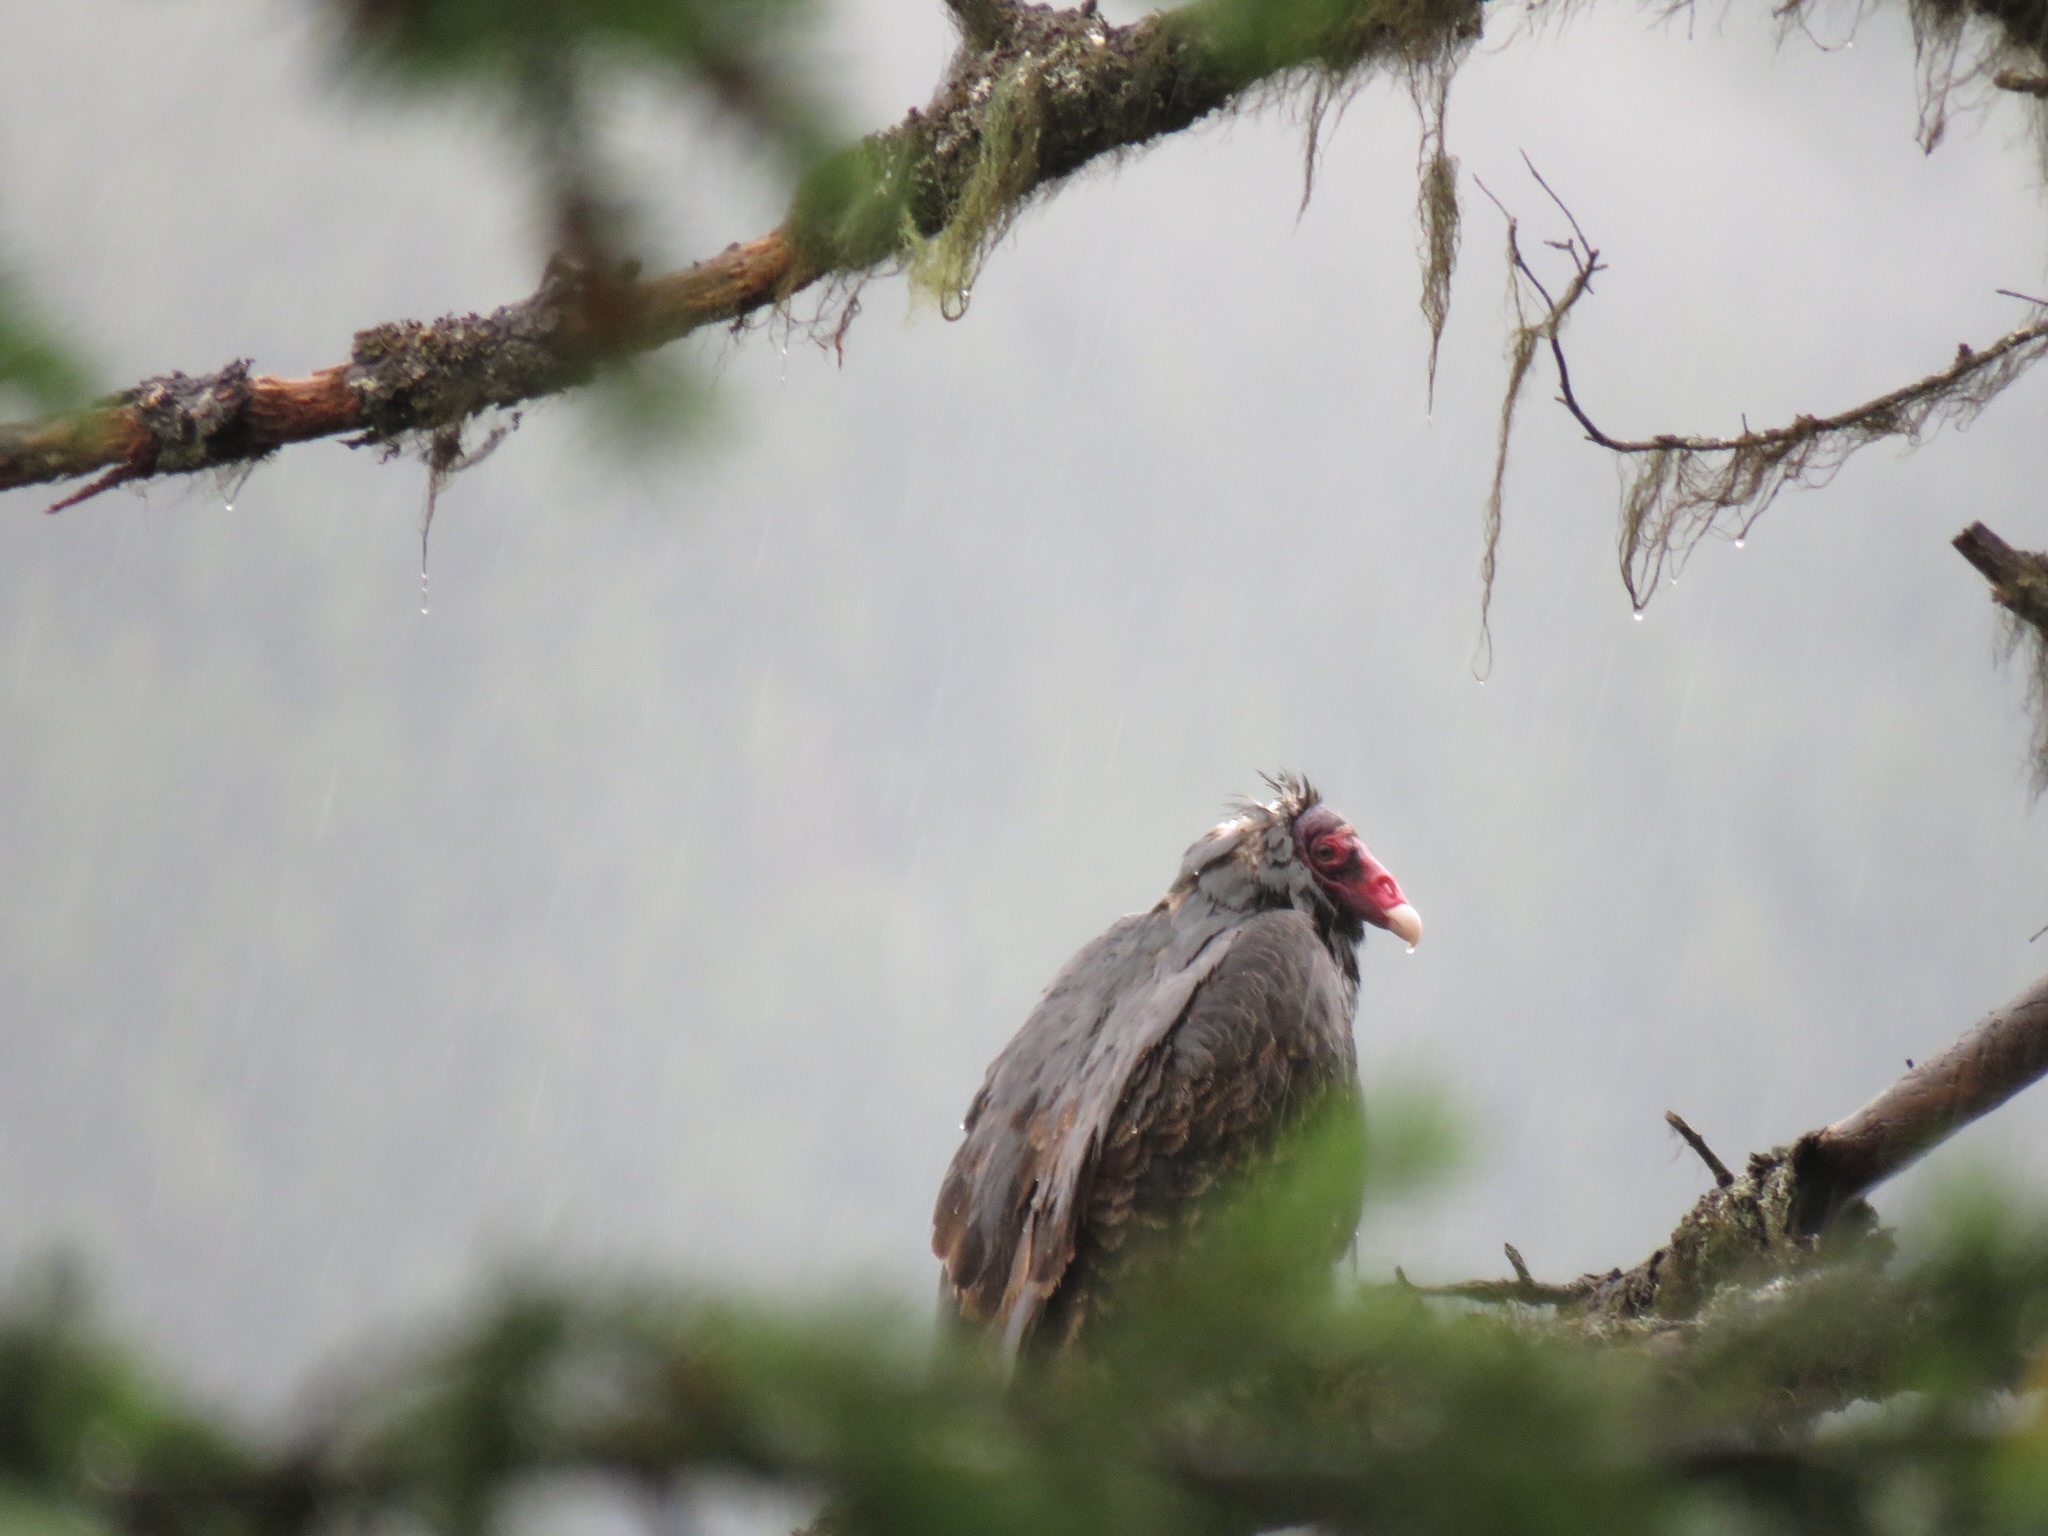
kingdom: Animalia
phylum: Chordata
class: Aves
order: Accipitriformes
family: Cathartidae
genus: Cathartes
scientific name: Cathartes aura
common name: Turkey vulture
